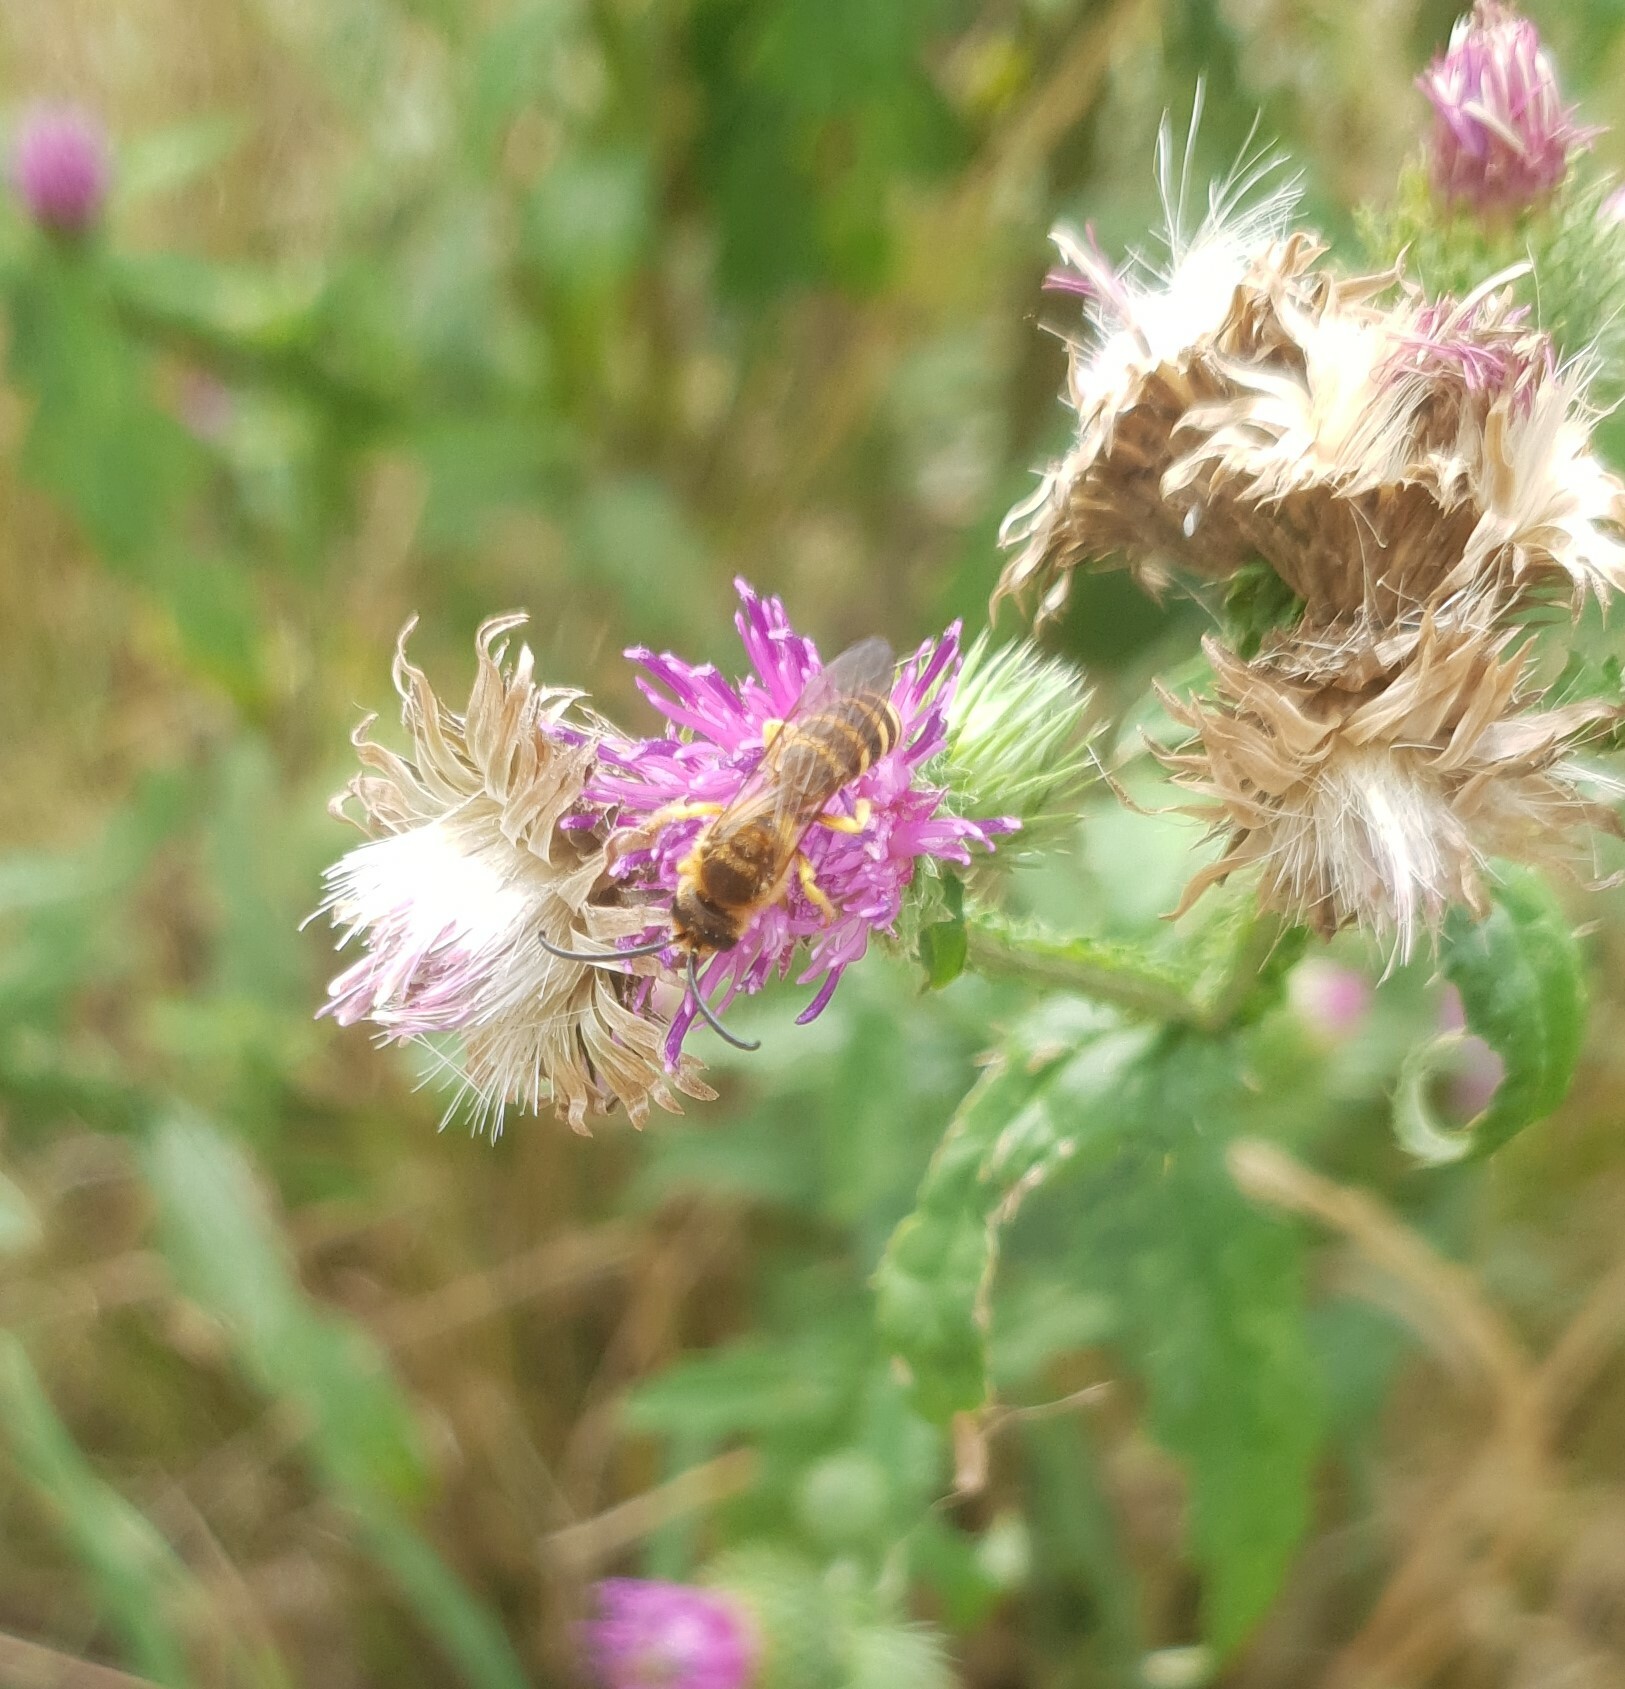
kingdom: Animalia
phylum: Arthropoda
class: Insecta
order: Hymenoptera
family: Halictidae
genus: Halictus
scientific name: Halictus scabiosae
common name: Great banded furrow bee
